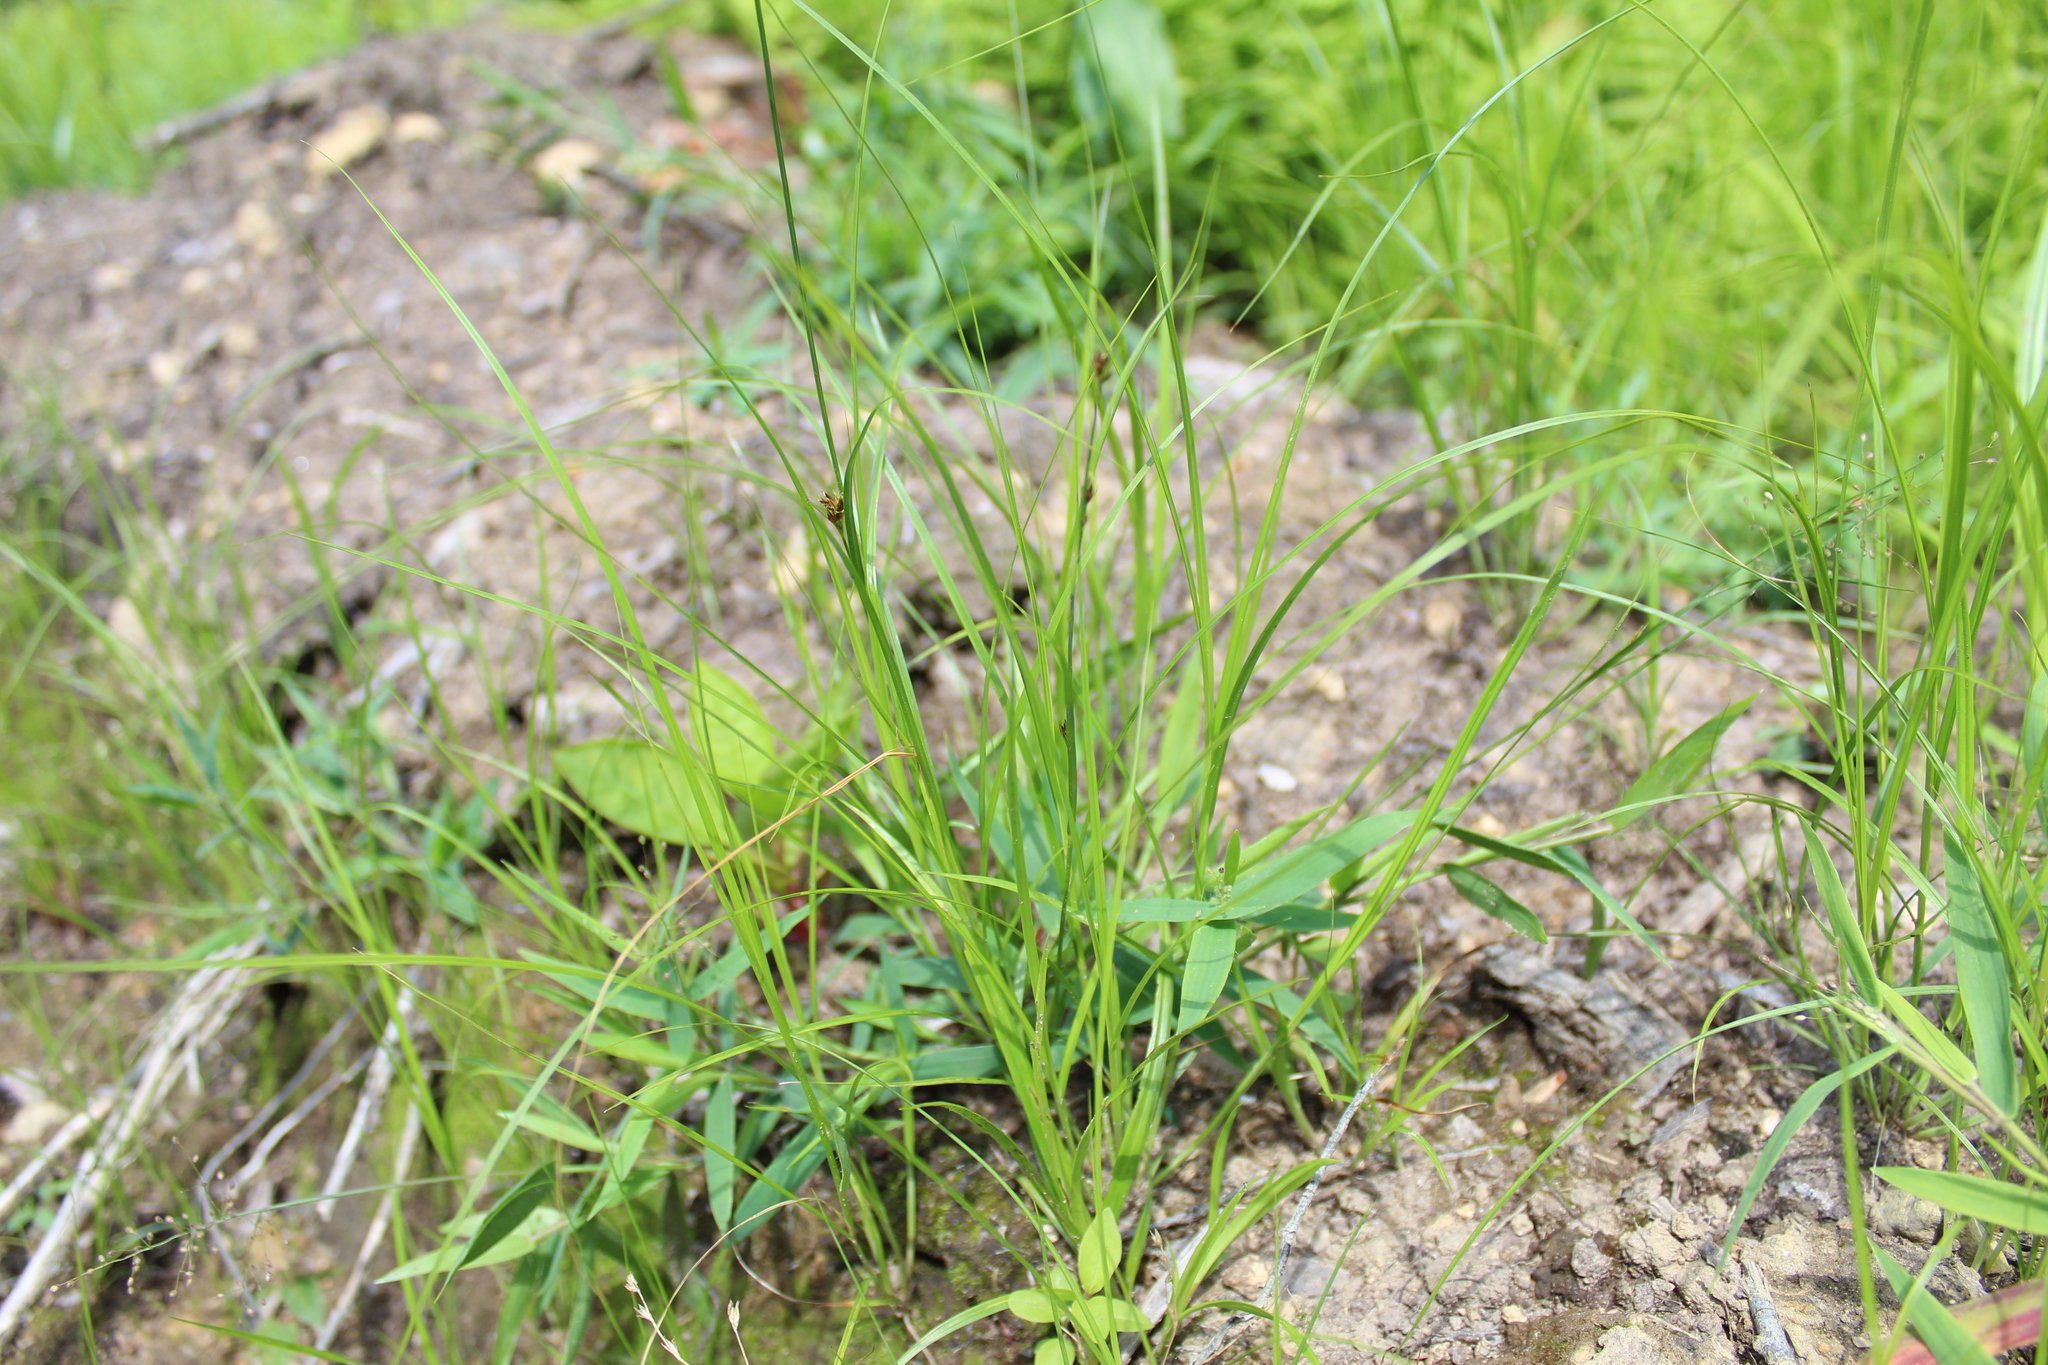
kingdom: Plantae
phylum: Tracheophyta
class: Liliopsida
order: Poales
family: Cyperaceae
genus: Rhynchospora
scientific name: Rhynchospora capitellata
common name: Brownish beaksedge
